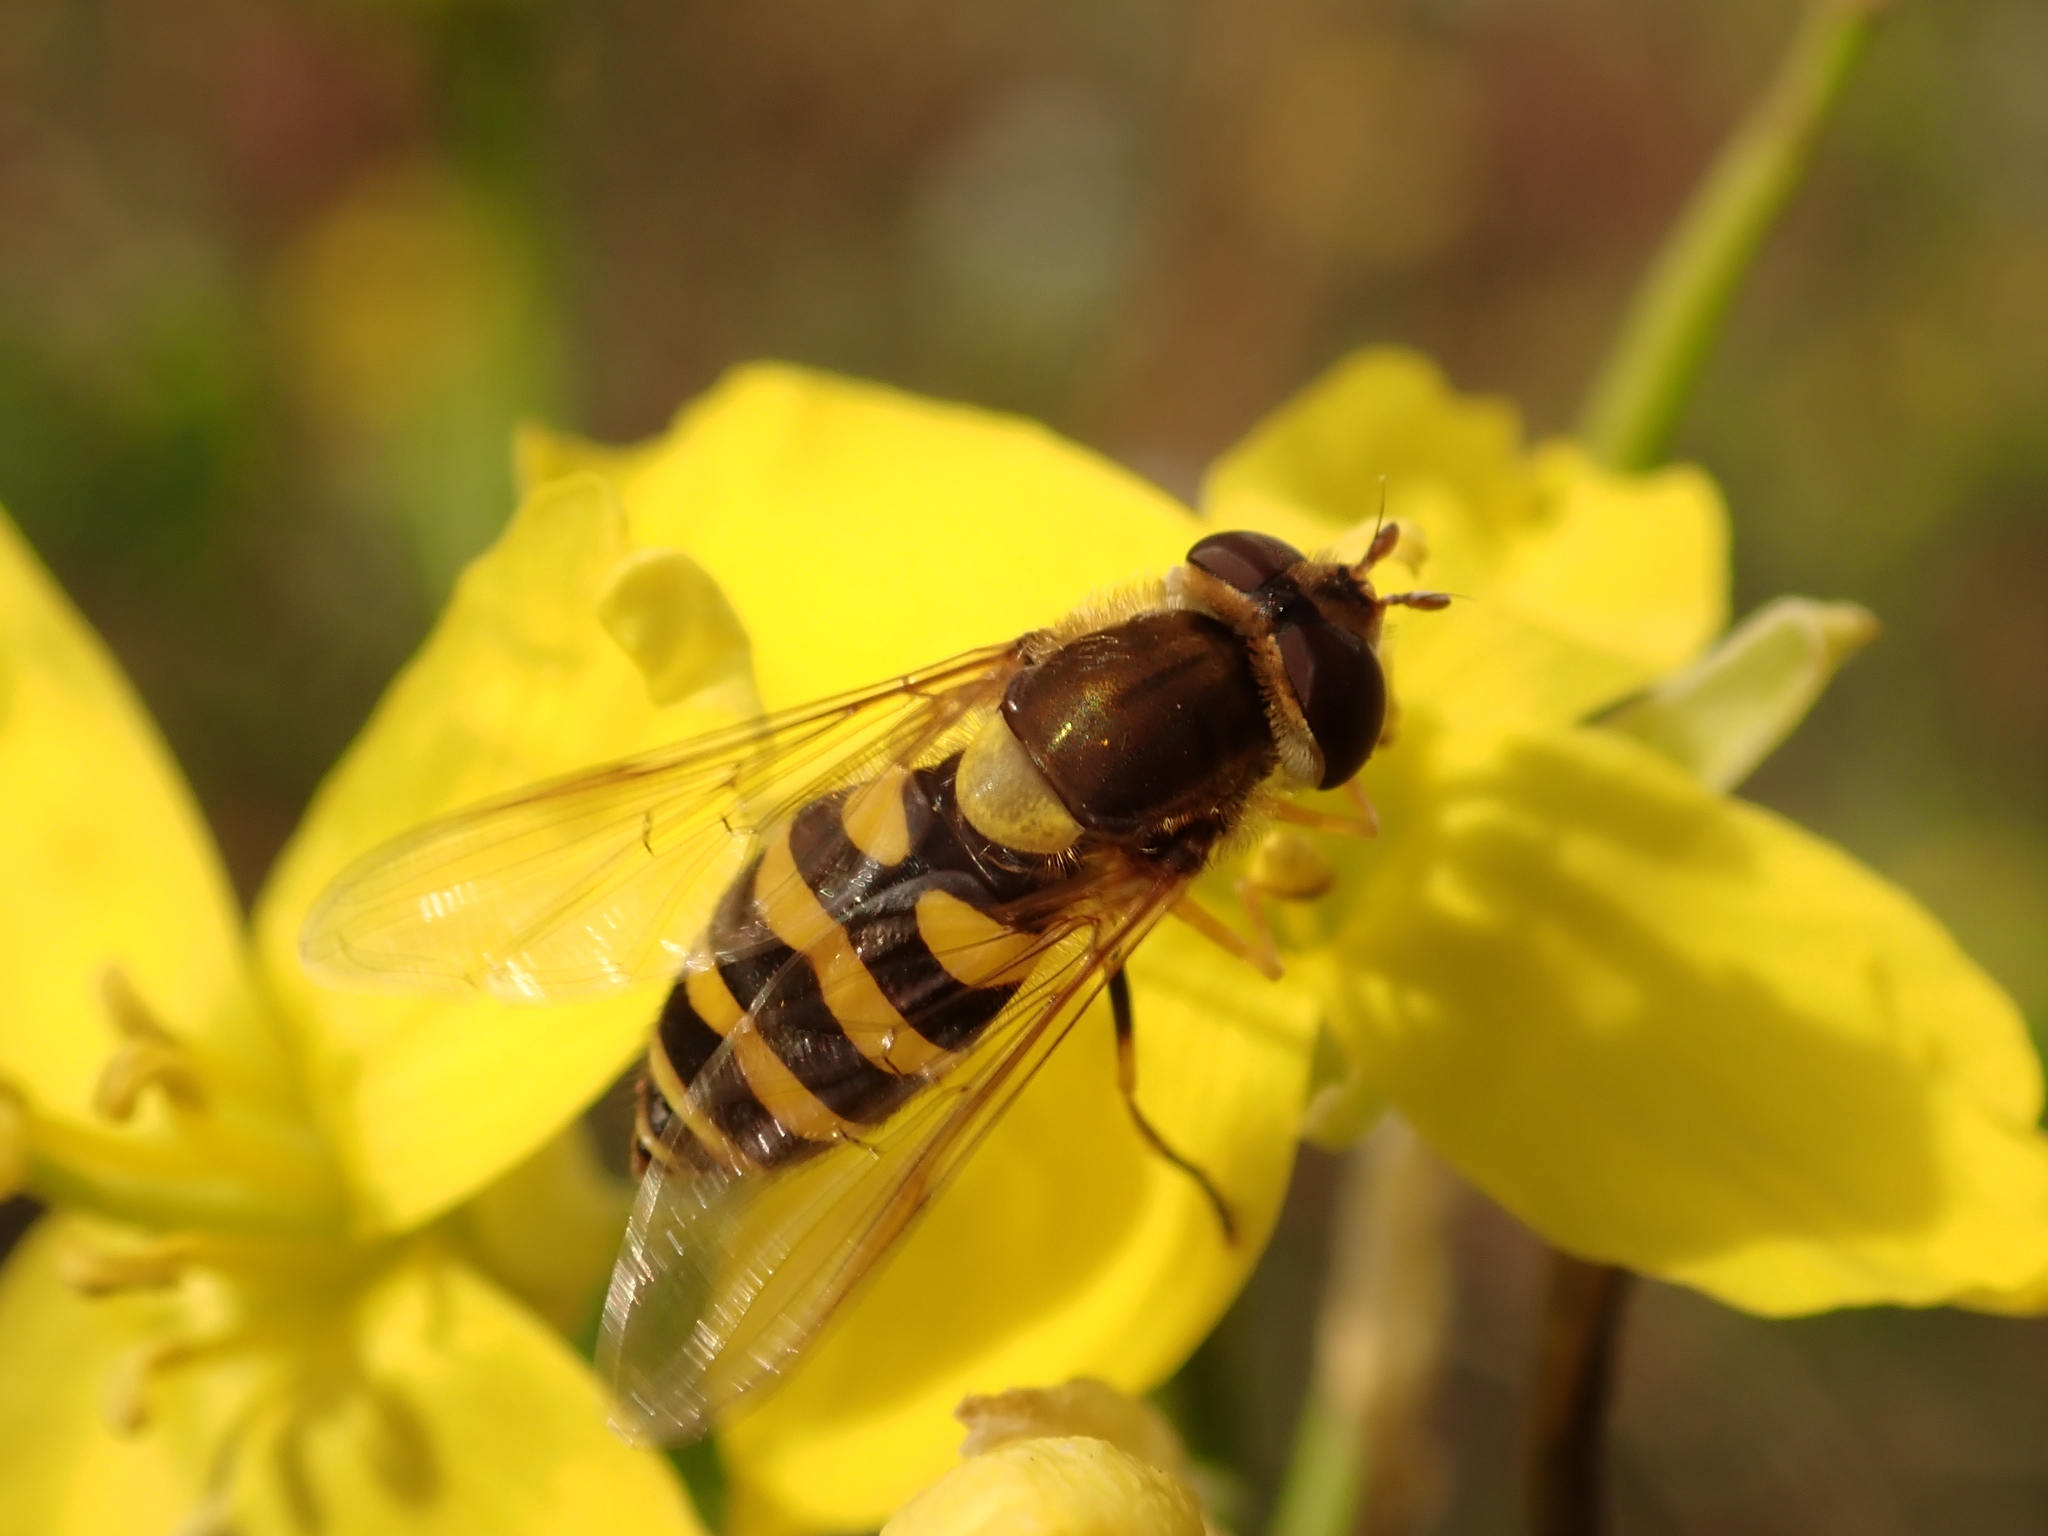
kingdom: Animalia
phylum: Arthropoda
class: Insecta
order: Diptera
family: Syrphidae
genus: Syrphus
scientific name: Syrphus vitripennis
